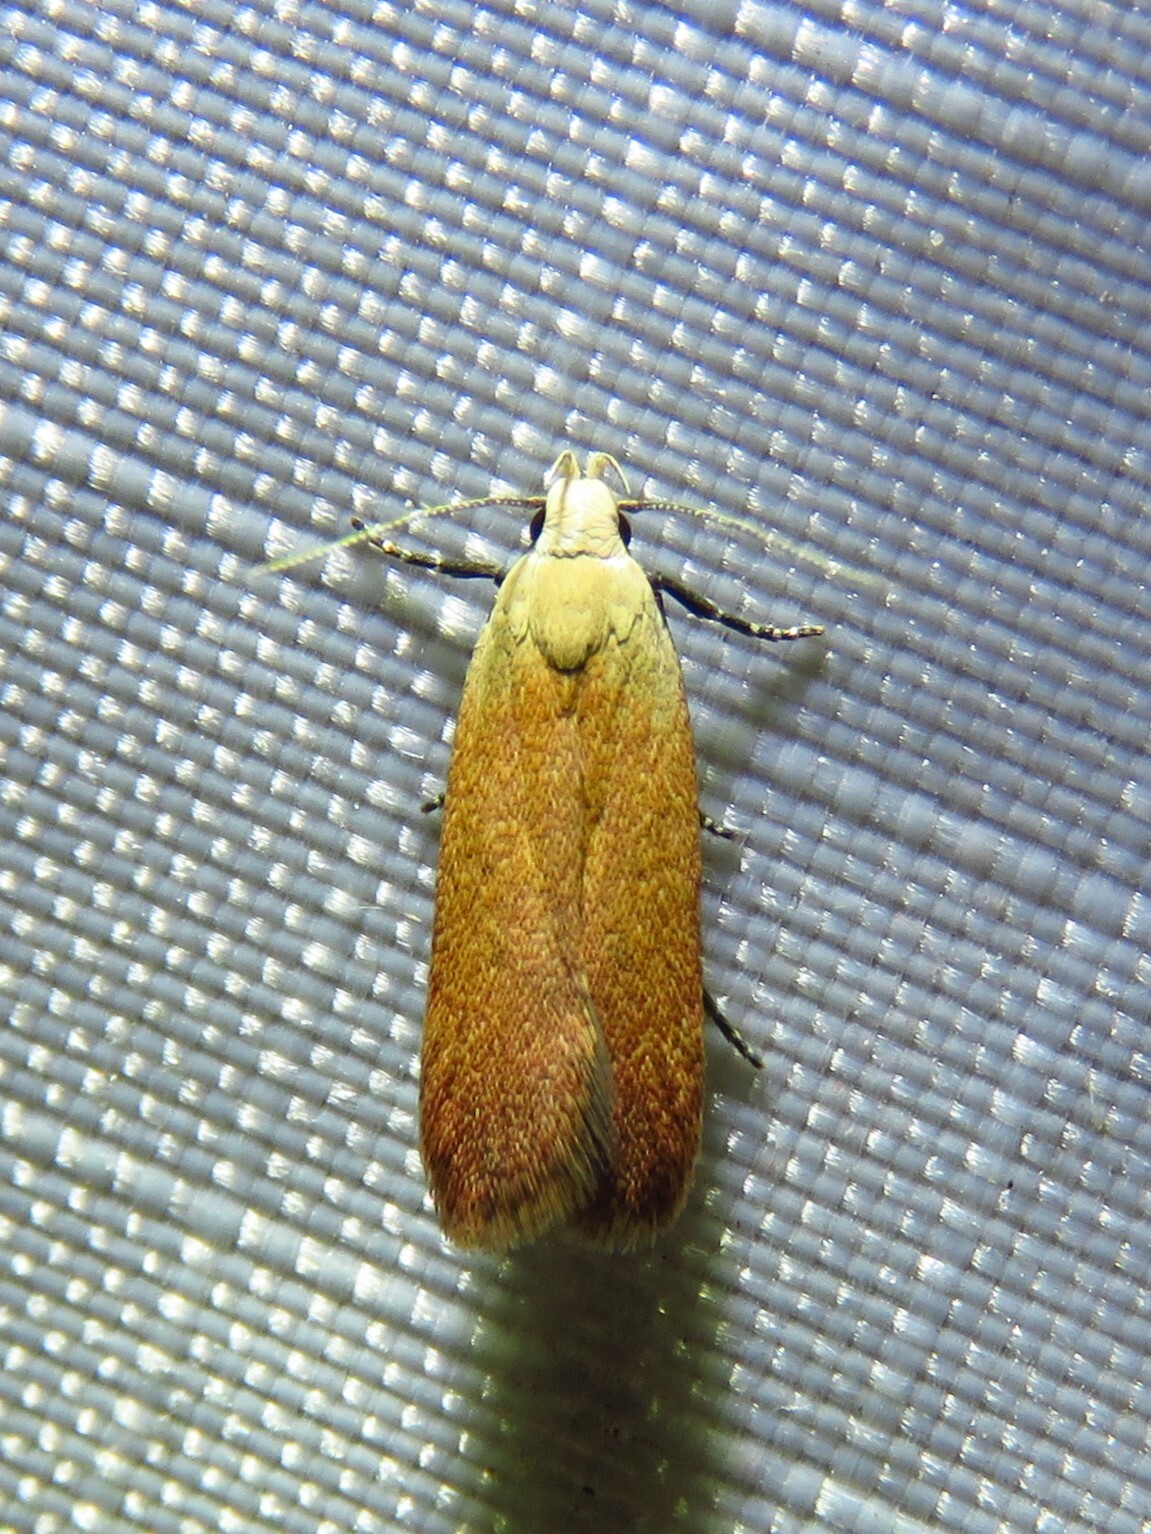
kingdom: Animalia
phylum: Arthropoda
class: Insecta
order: Lepidoptera
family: Gelechiidae
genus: Anacampsis
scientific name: Anacampsis fullonella
